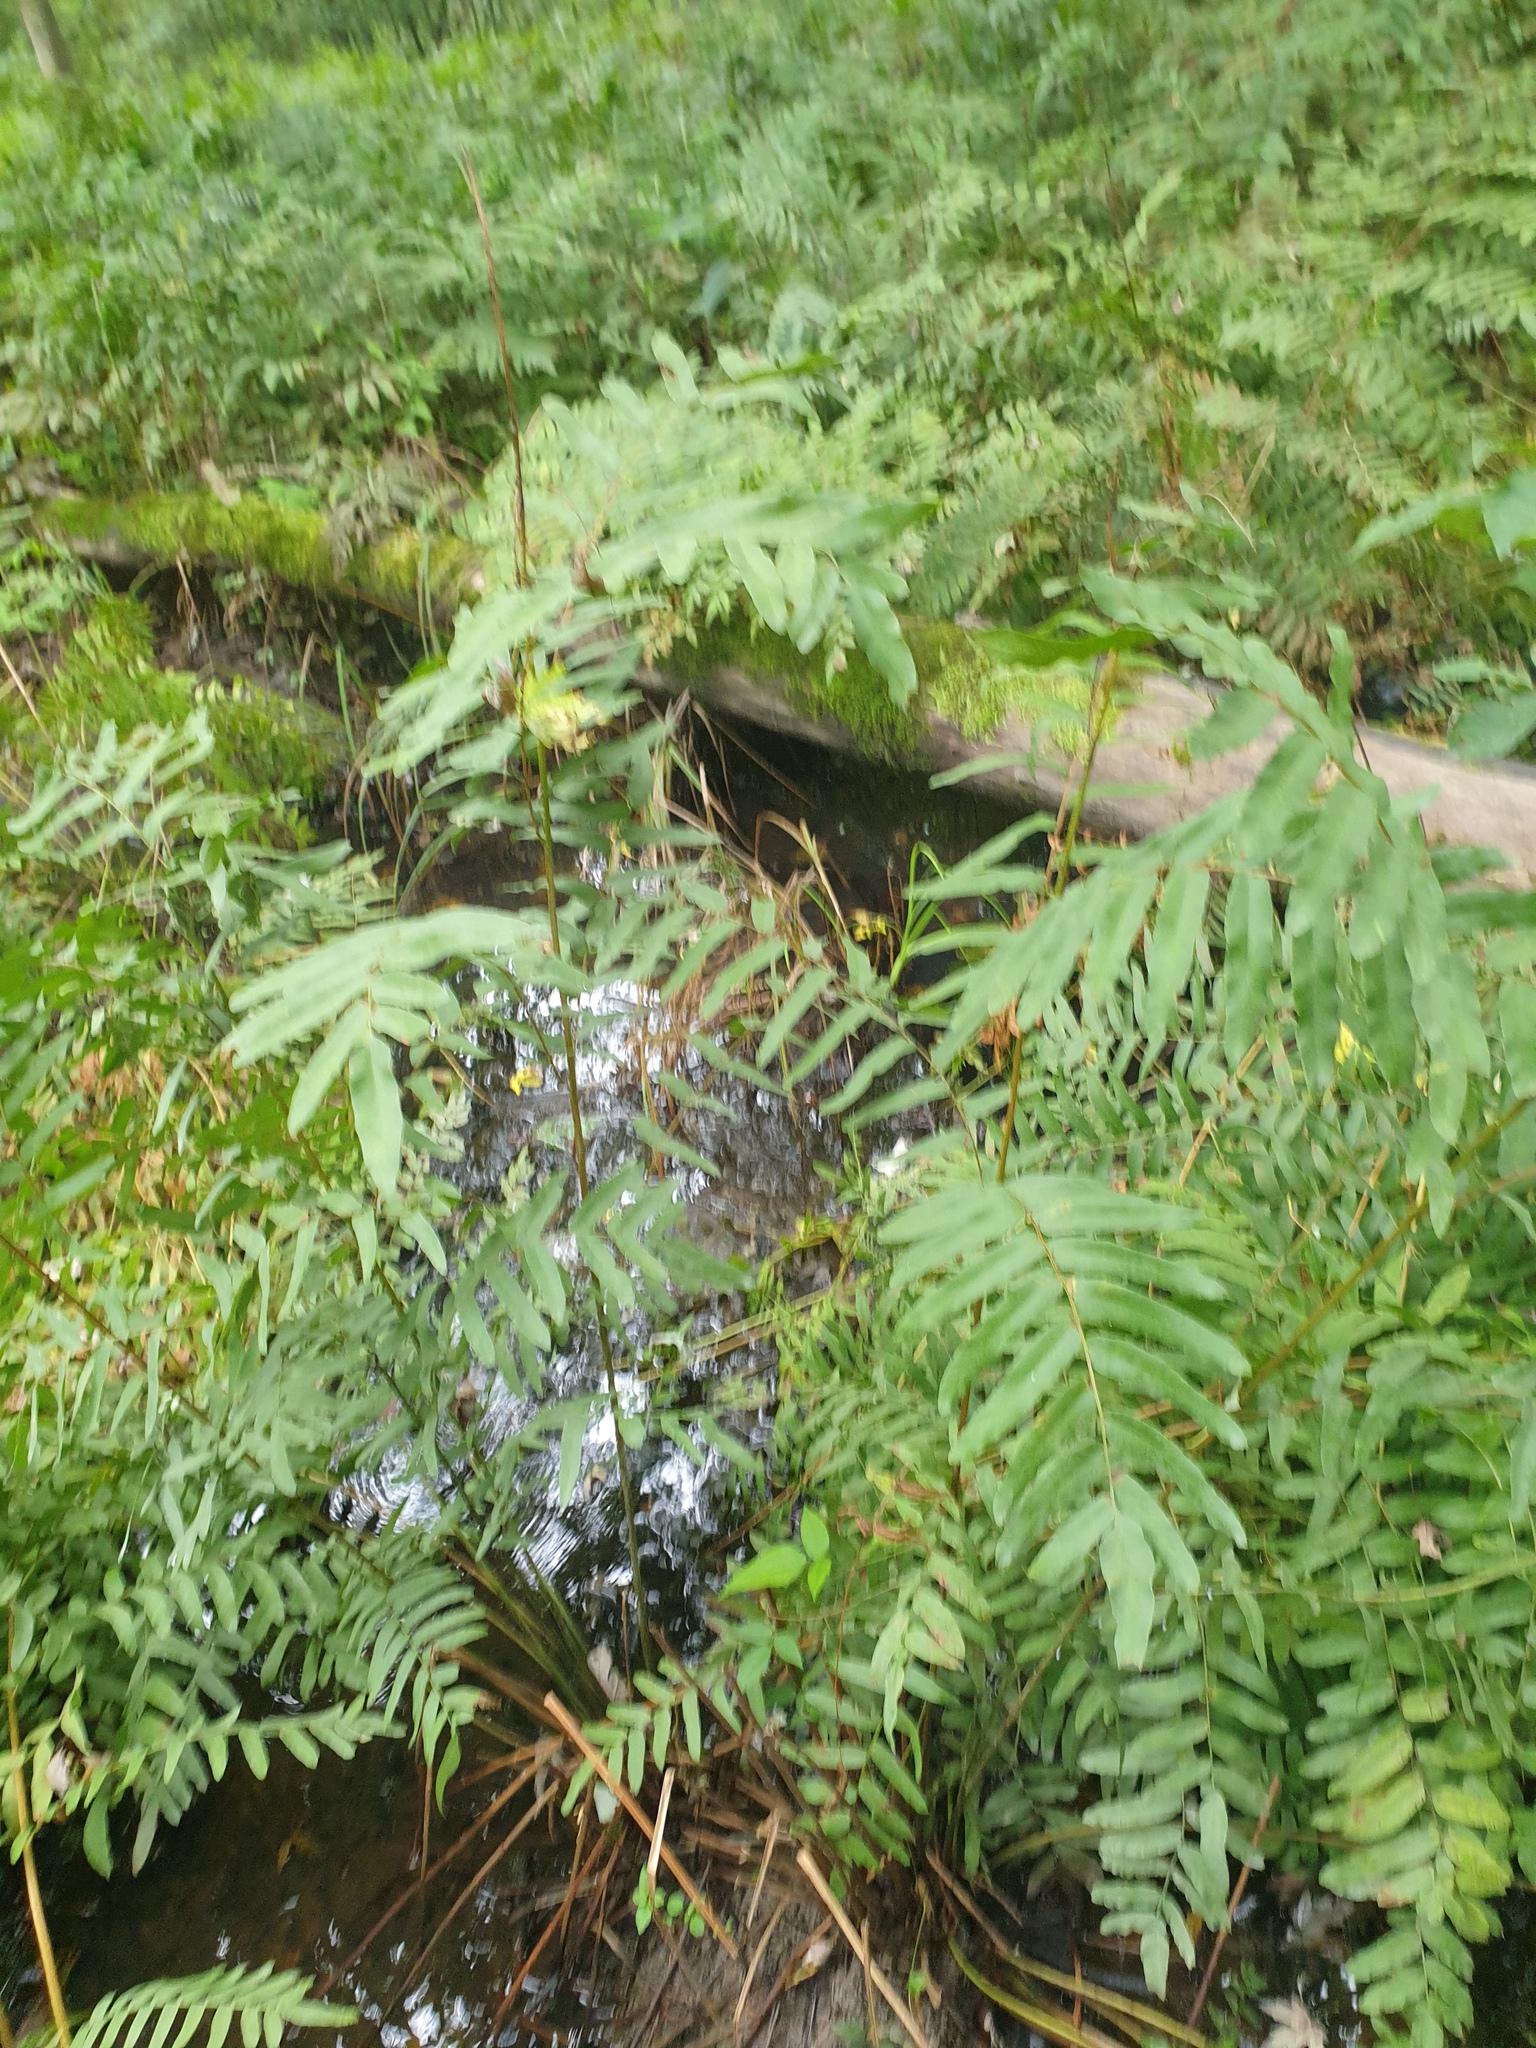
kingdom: Plantae
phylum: Tracheophyta
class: Polypodiopsida
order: Osmundales
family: Osmundaceae
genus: Osmunda
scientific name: Osmunda spectabilis
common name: American royal fern
